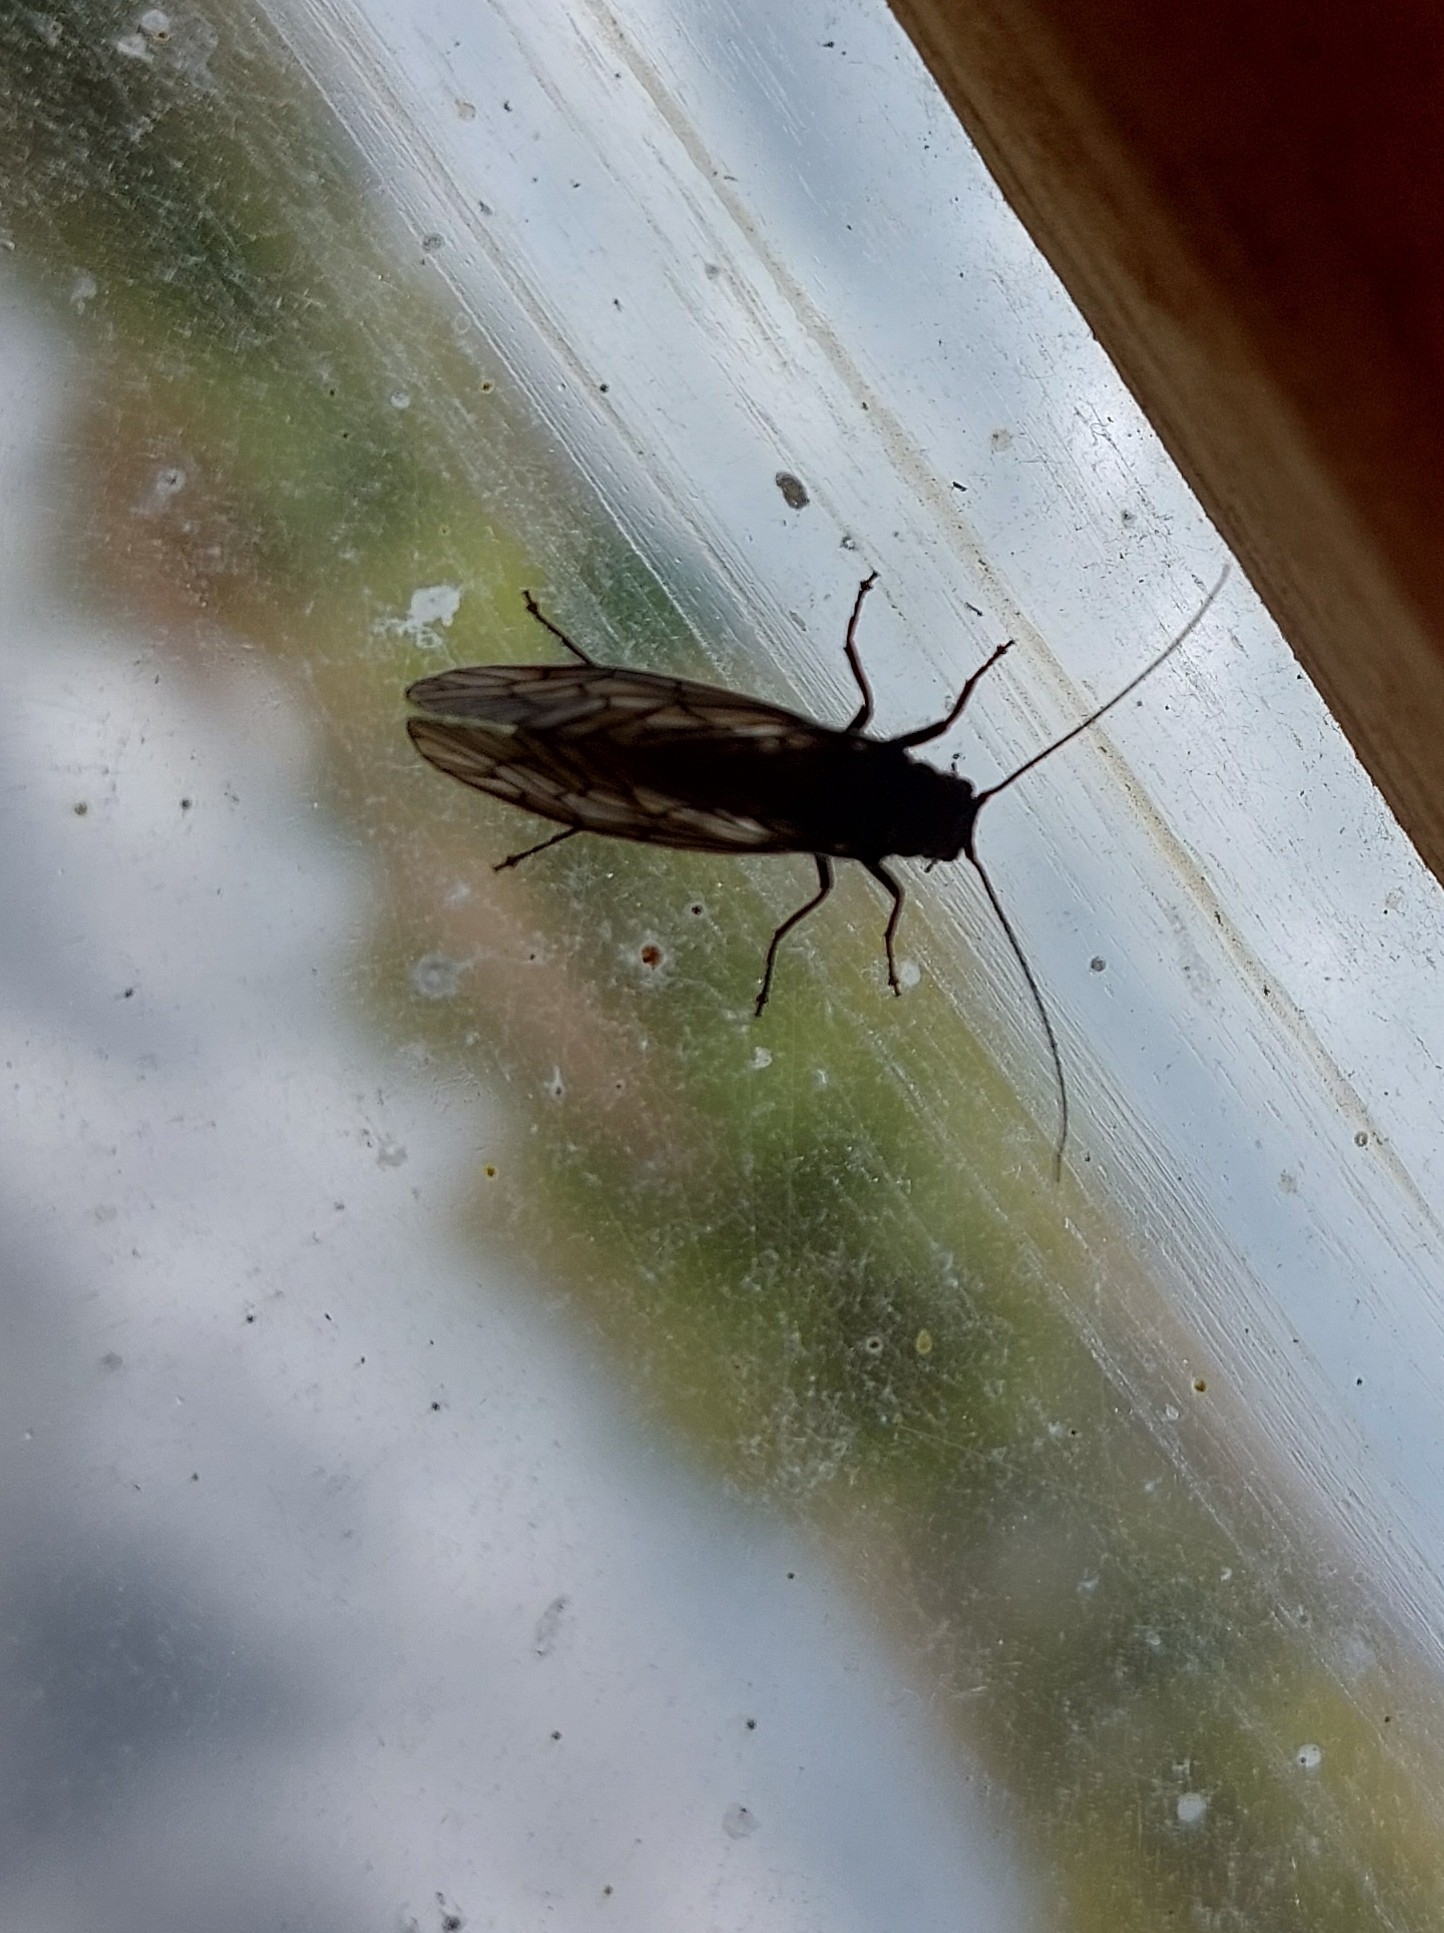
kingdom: Animalia
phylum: Arthropoda
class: Insecta
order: Megaloptera
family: Sialidae
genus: Sialis
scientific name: Sialis
